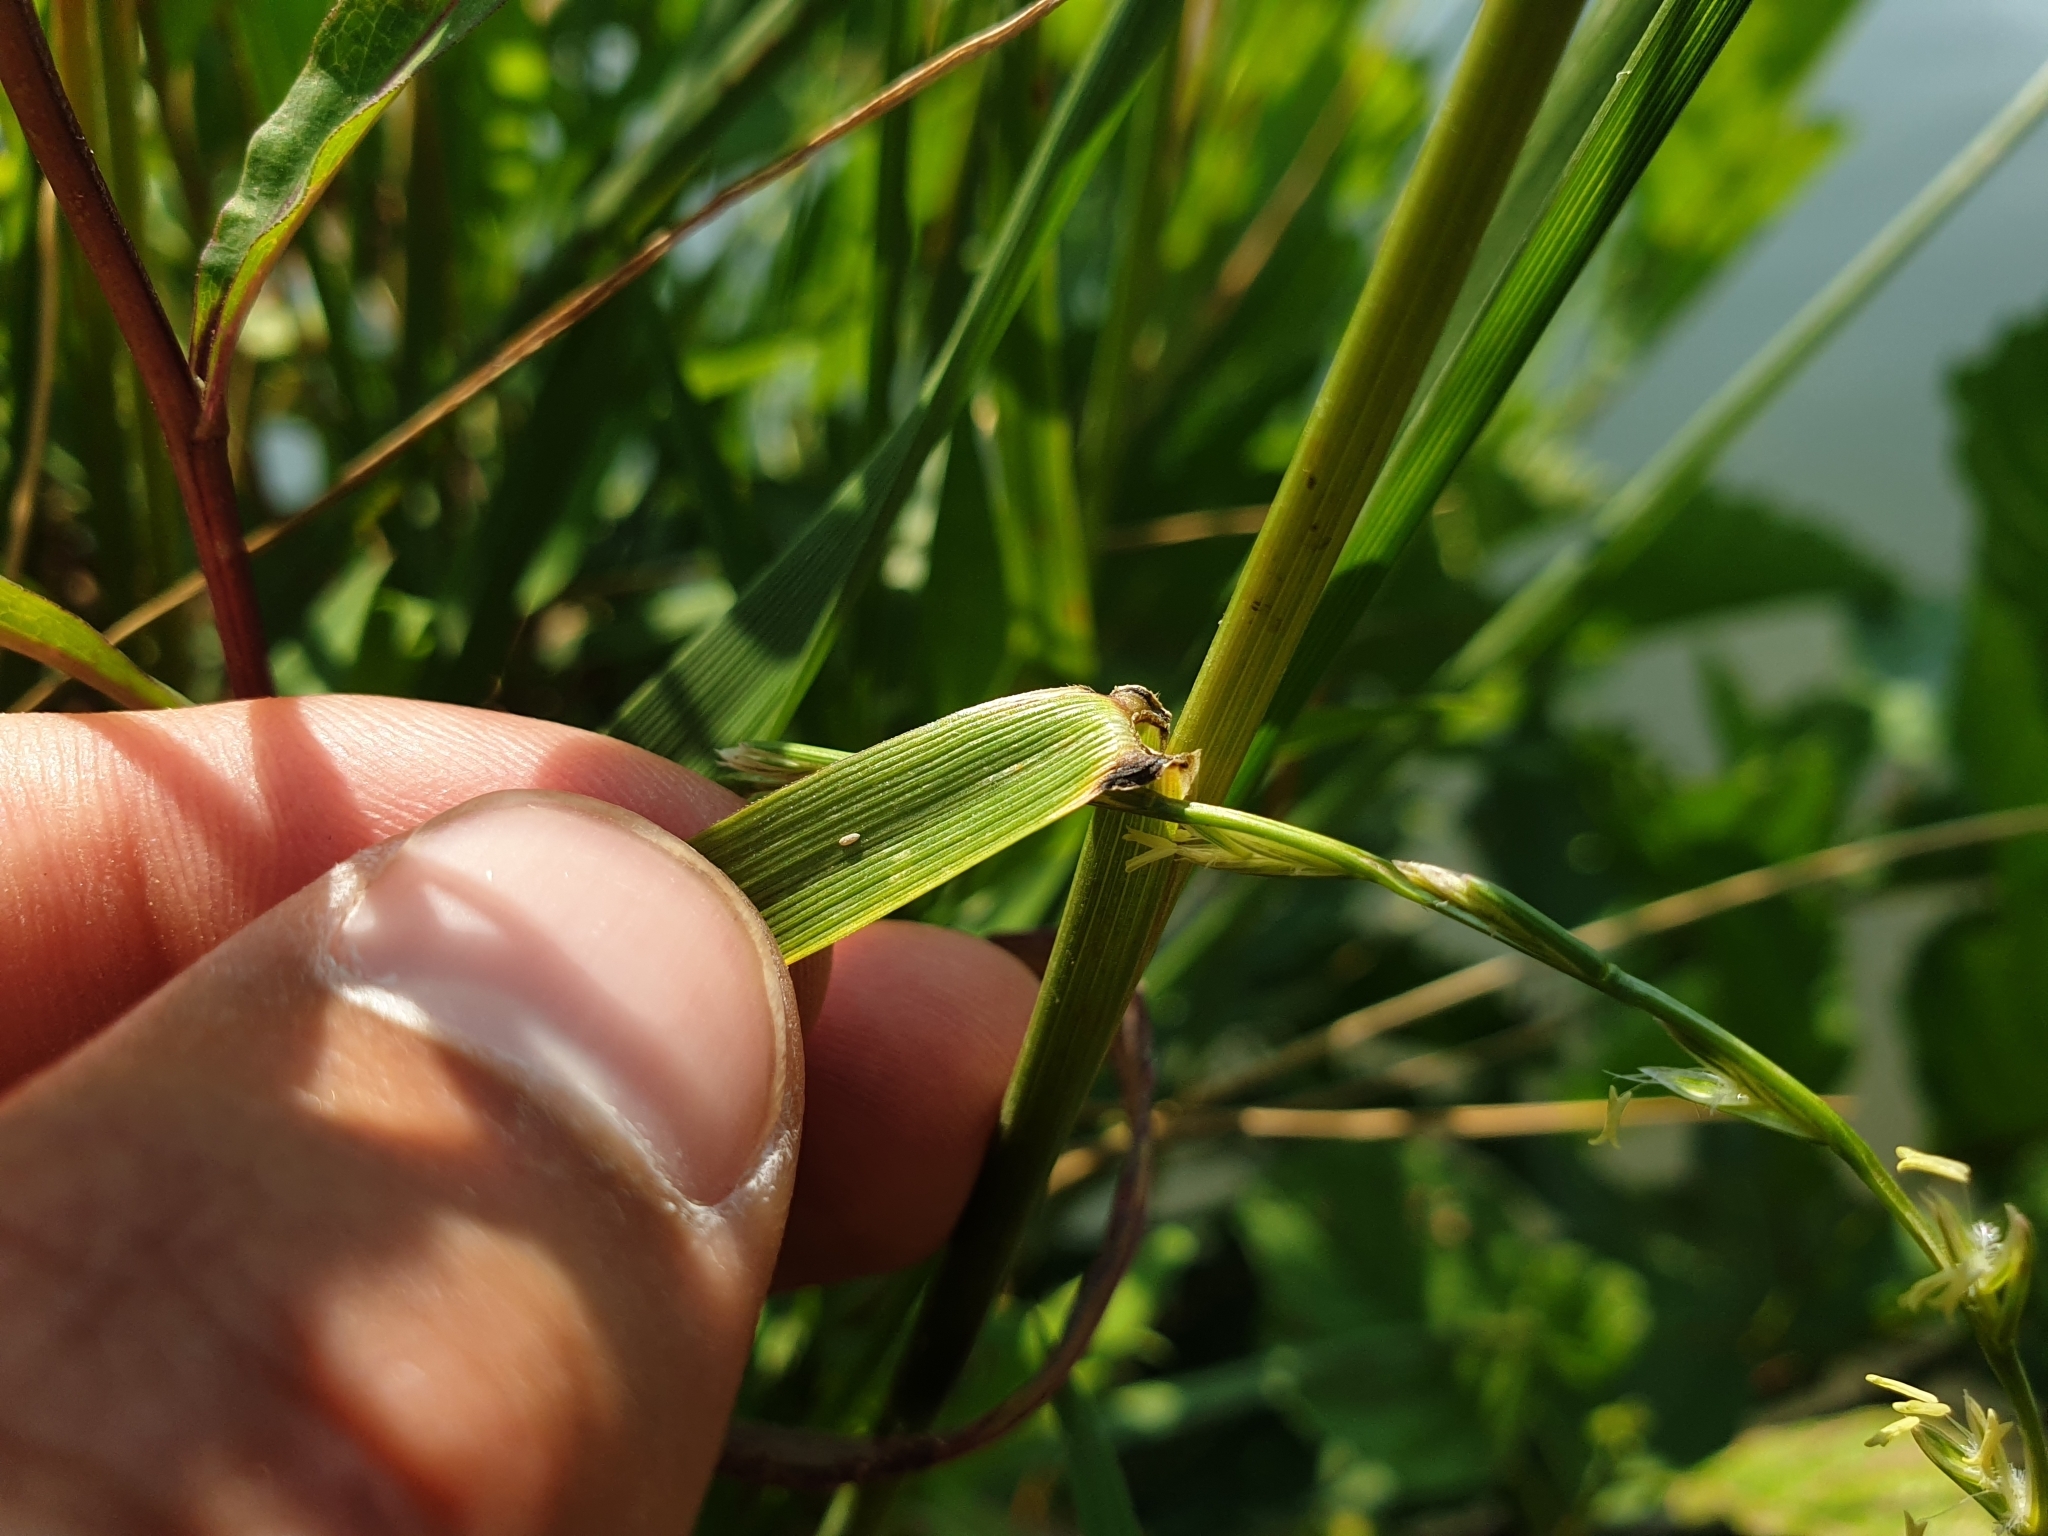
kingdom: Plantae
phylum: Tracheophyta
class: Liliopsida
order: Poales
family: Poaceae
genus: Lolium
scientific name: Lolium arundinaceum
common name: Reed fescue
